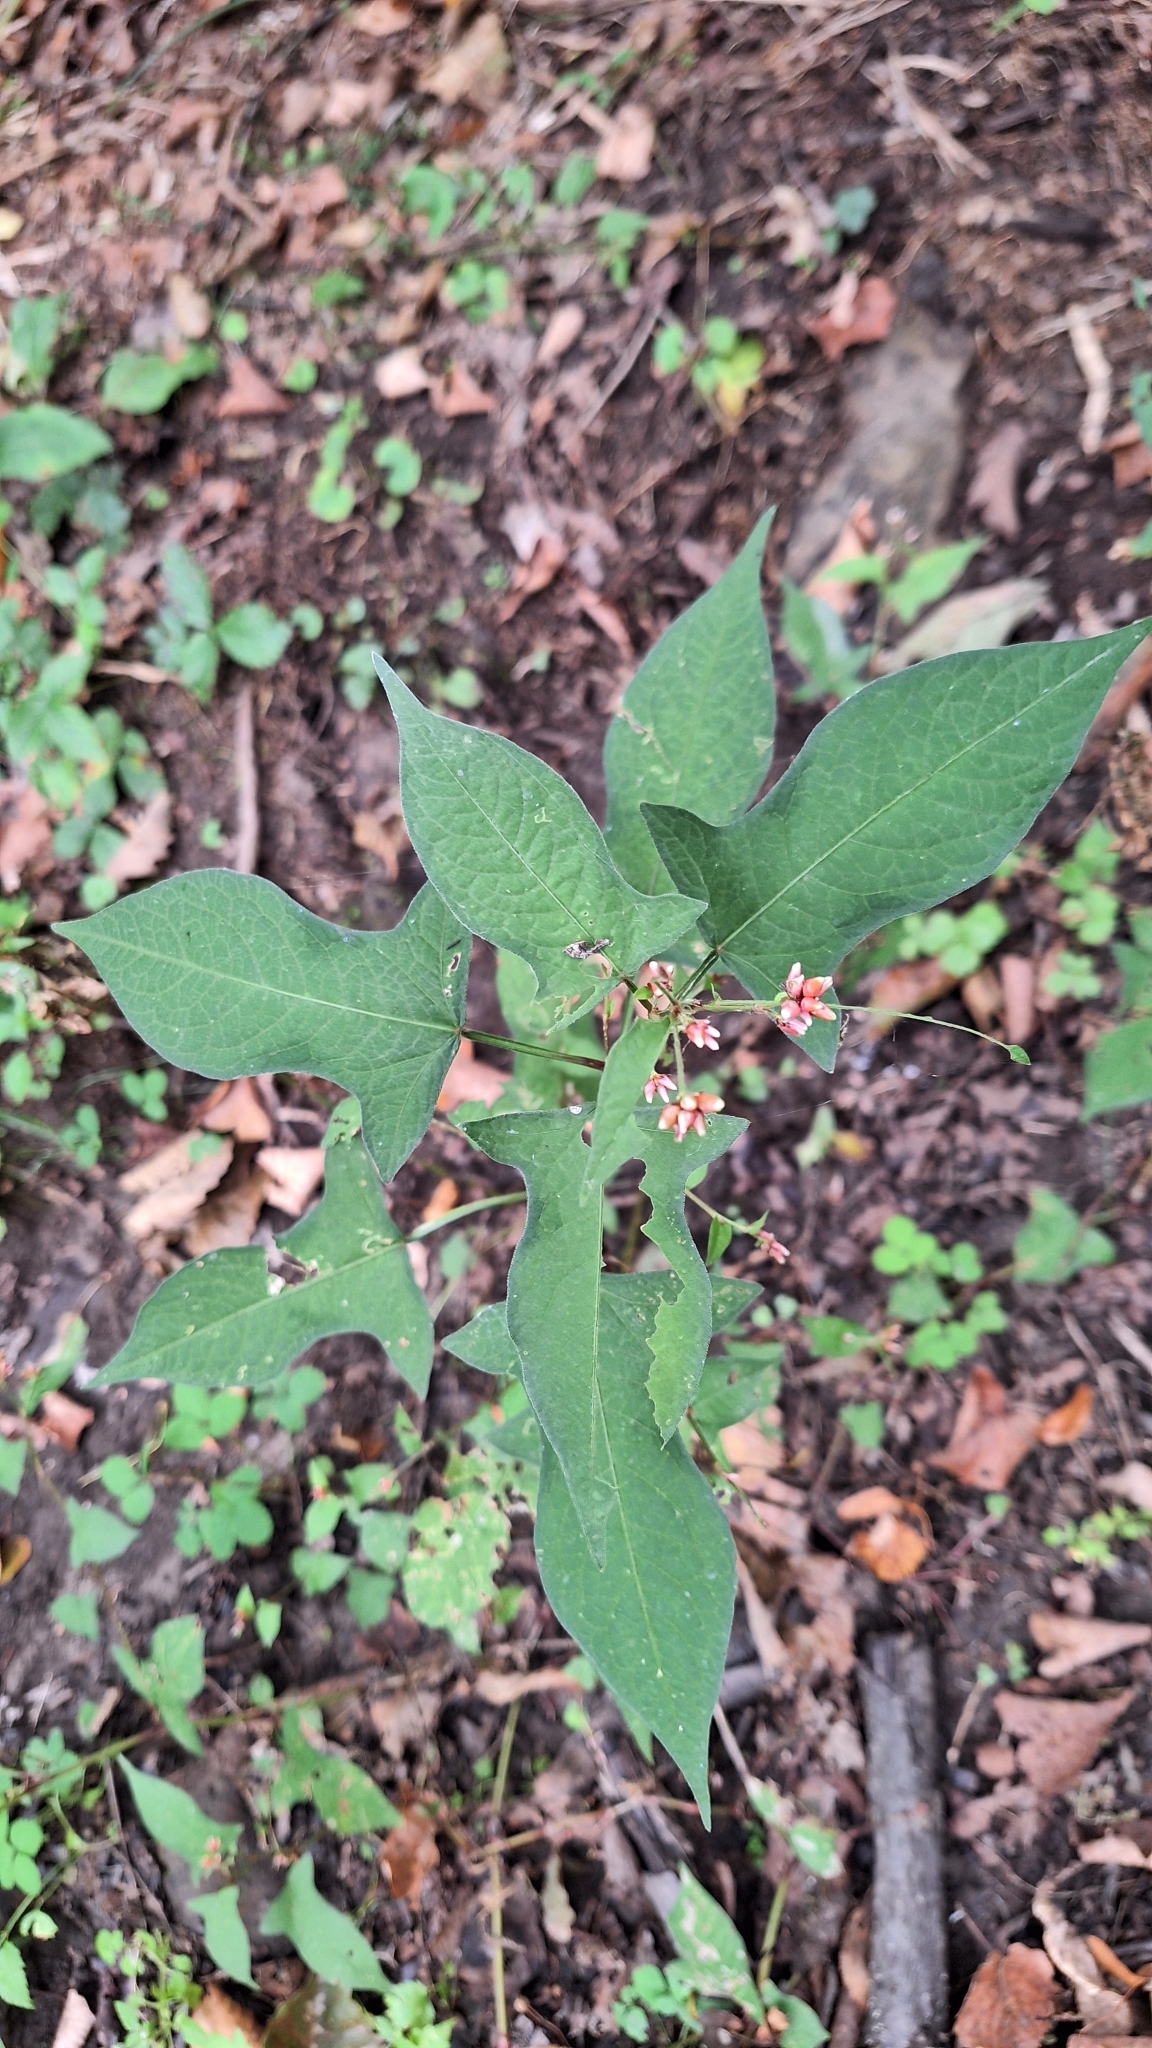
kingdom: Plantae
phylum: Tracheophyta
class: Magnoliopsida
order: Caryophyllales
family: Polygonaceae
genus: Persicaria
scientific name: Persicaria thunbergii
